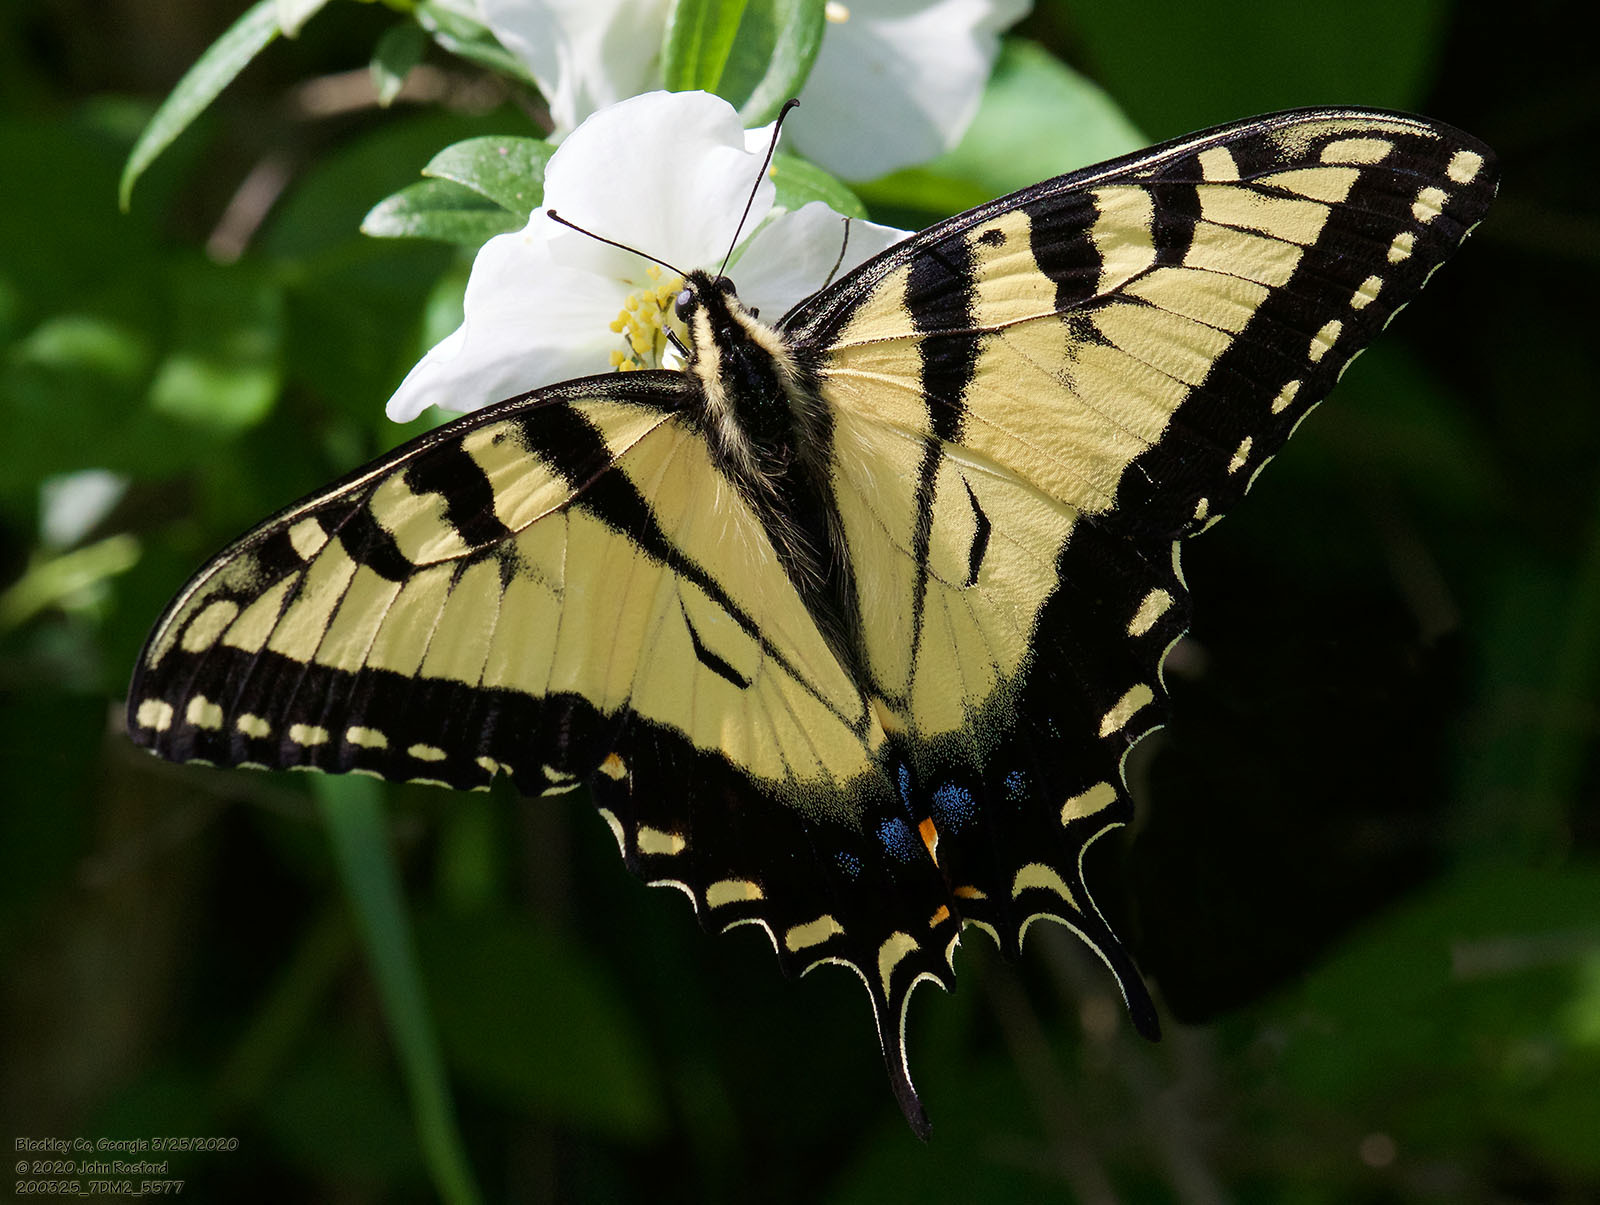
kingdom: Animalia
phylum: Arthropoda
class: Insecta
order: Lepidoptera
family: Papilionidae
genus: Papilio
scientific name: Papilio glaucus
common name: Tiger swallowtail
